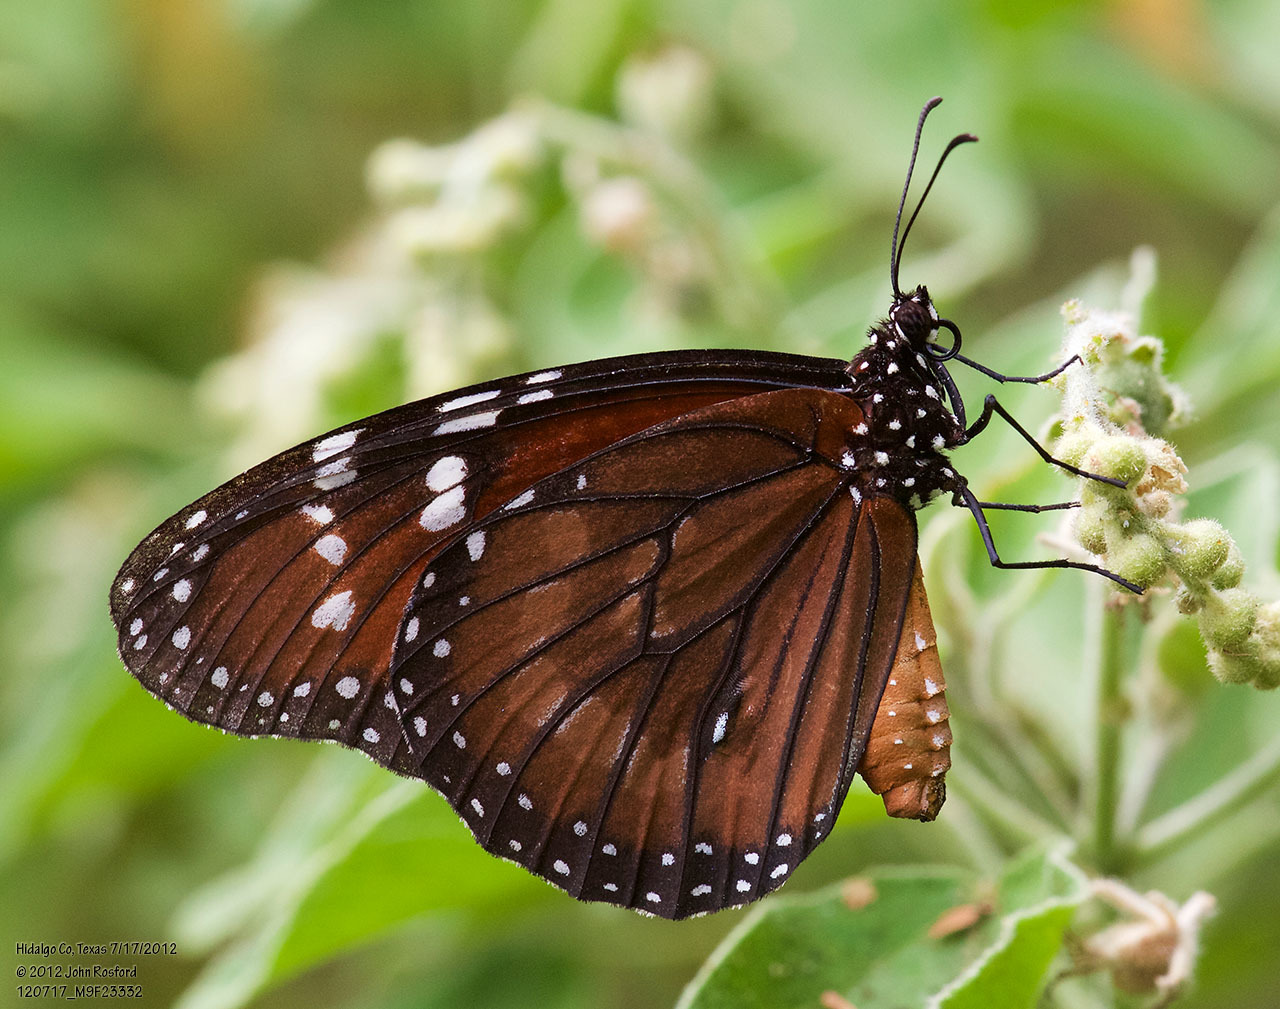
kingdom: Animalia
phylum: Arthropoda
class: Insecta
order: Lepidoptera
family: Nymphalidae
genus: Danaus
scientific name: Danaus eresimus
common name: Soldier
